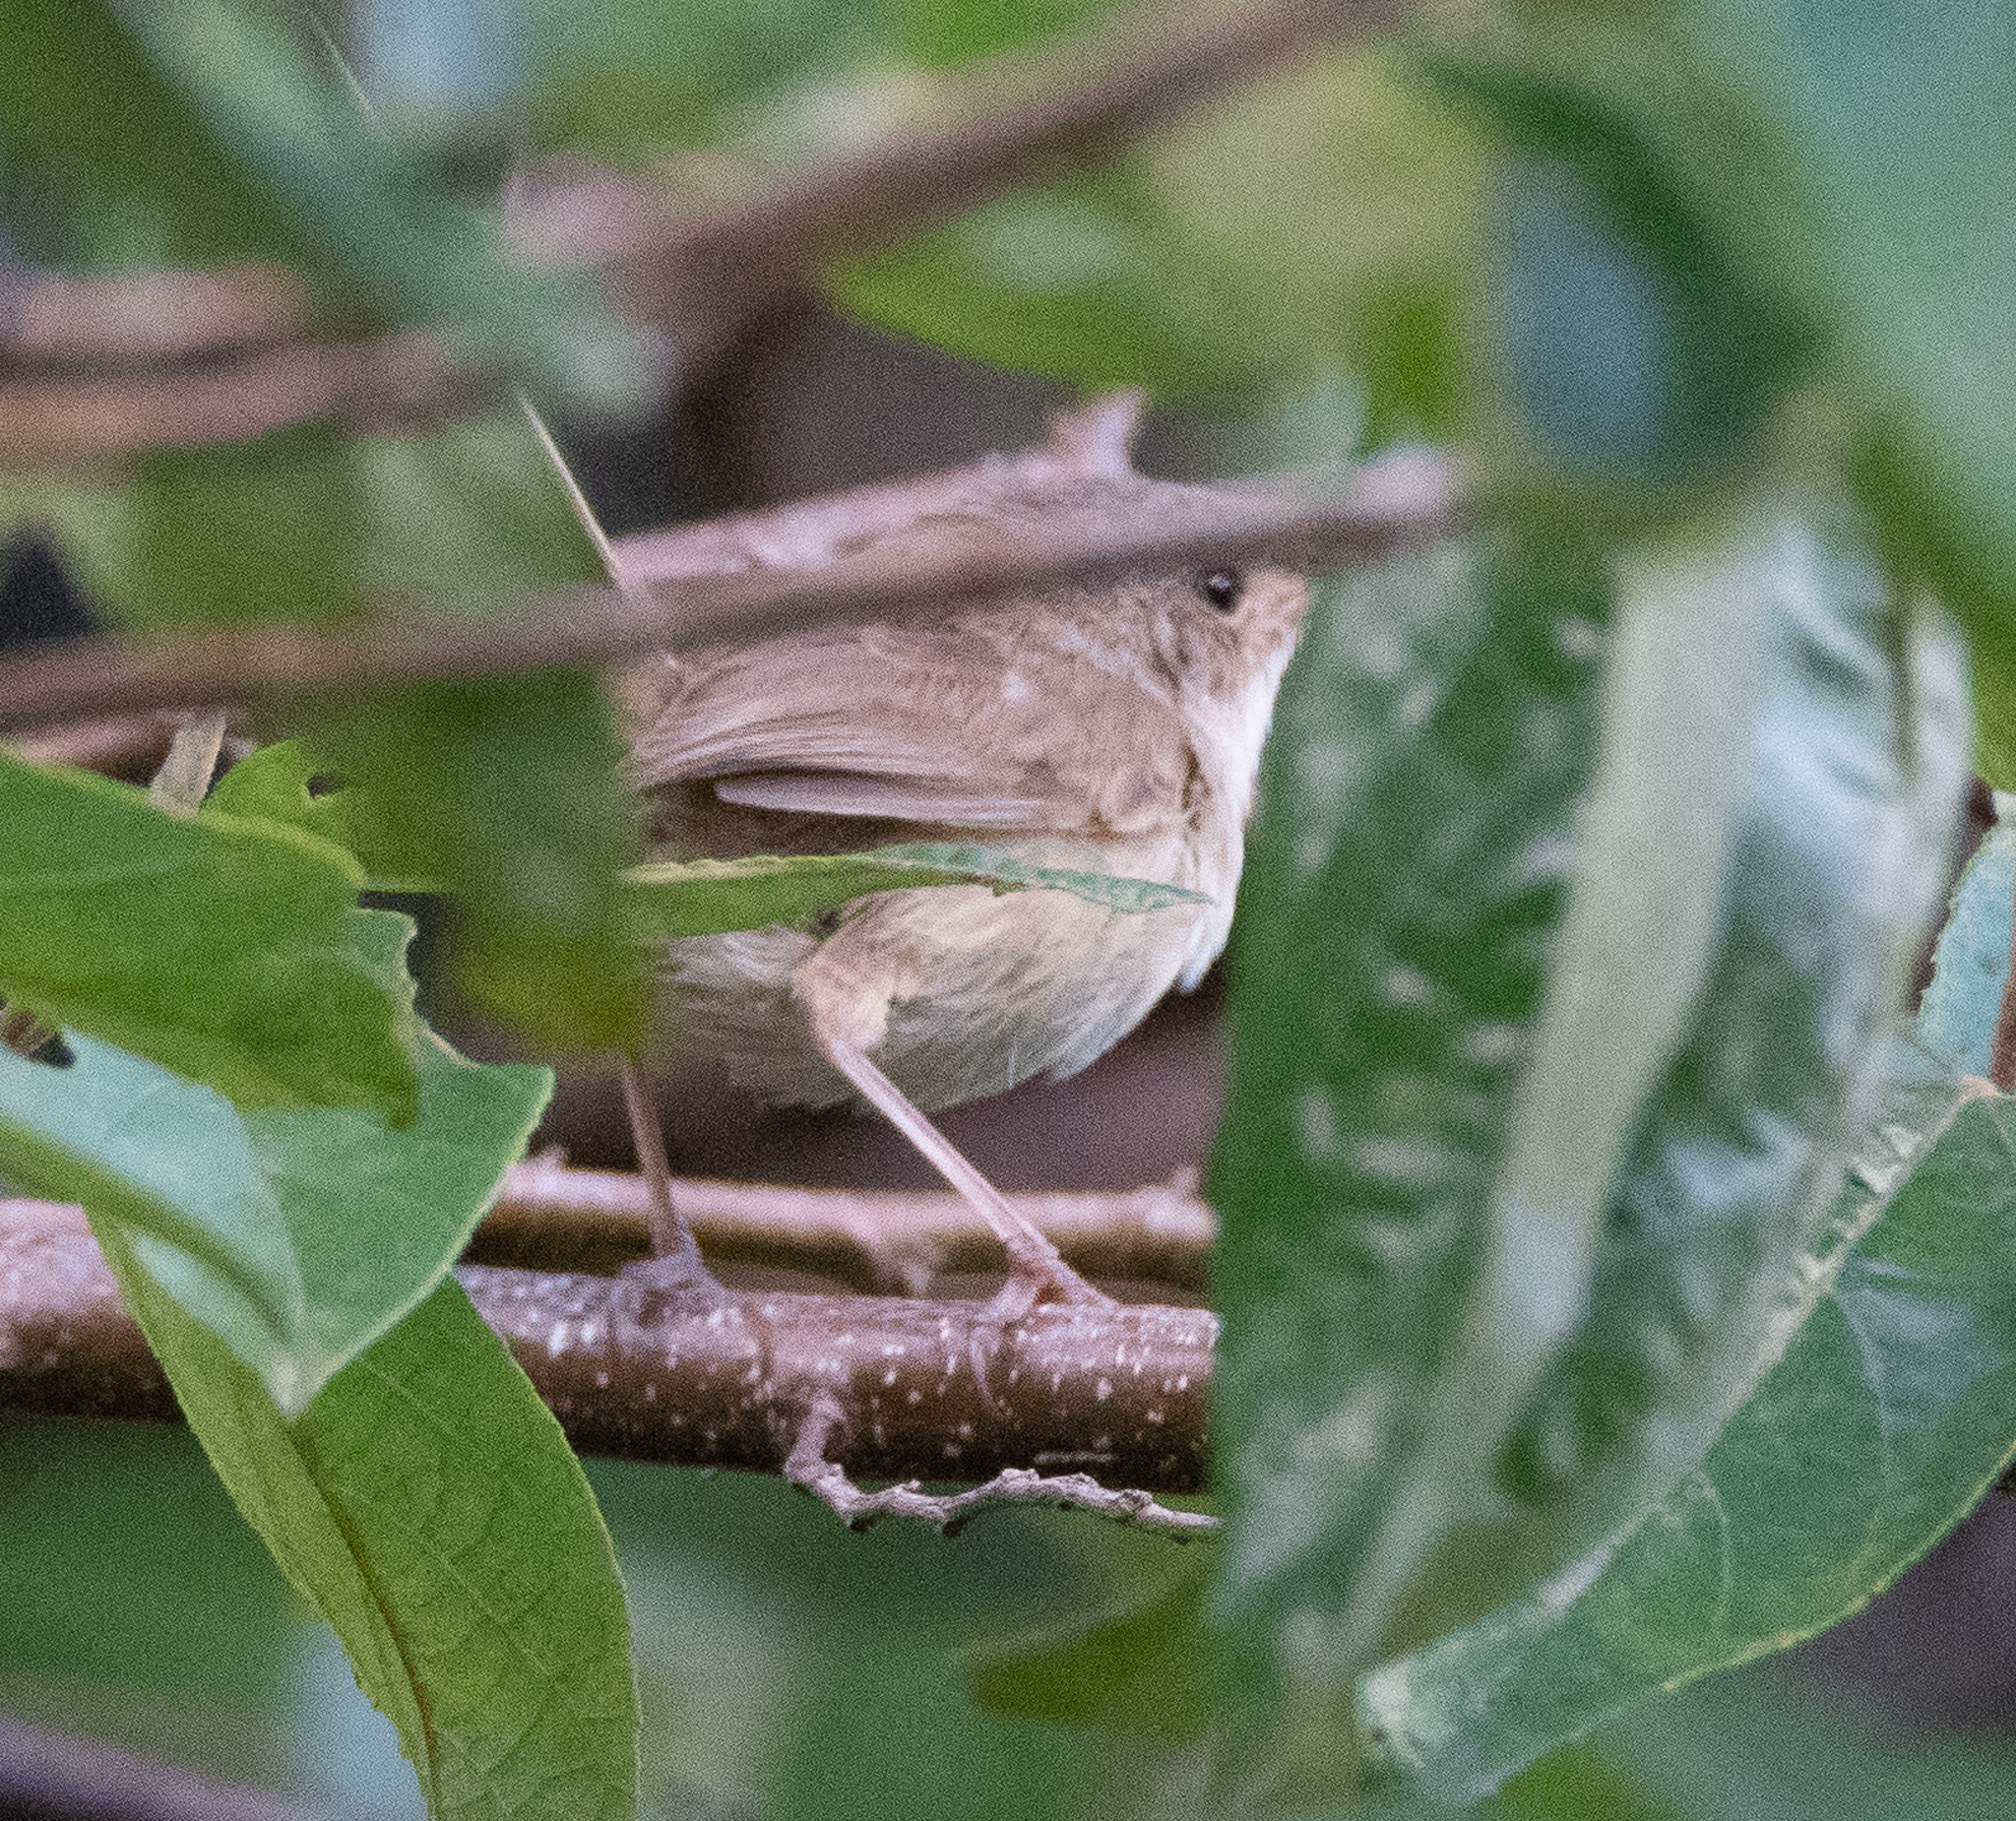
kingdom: Animalia
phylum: Chordata
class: Aves
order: Passeriformes
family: Maluridae
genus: Malurus
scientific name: Malurus melanocephalus
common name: Red-backed fairywren
